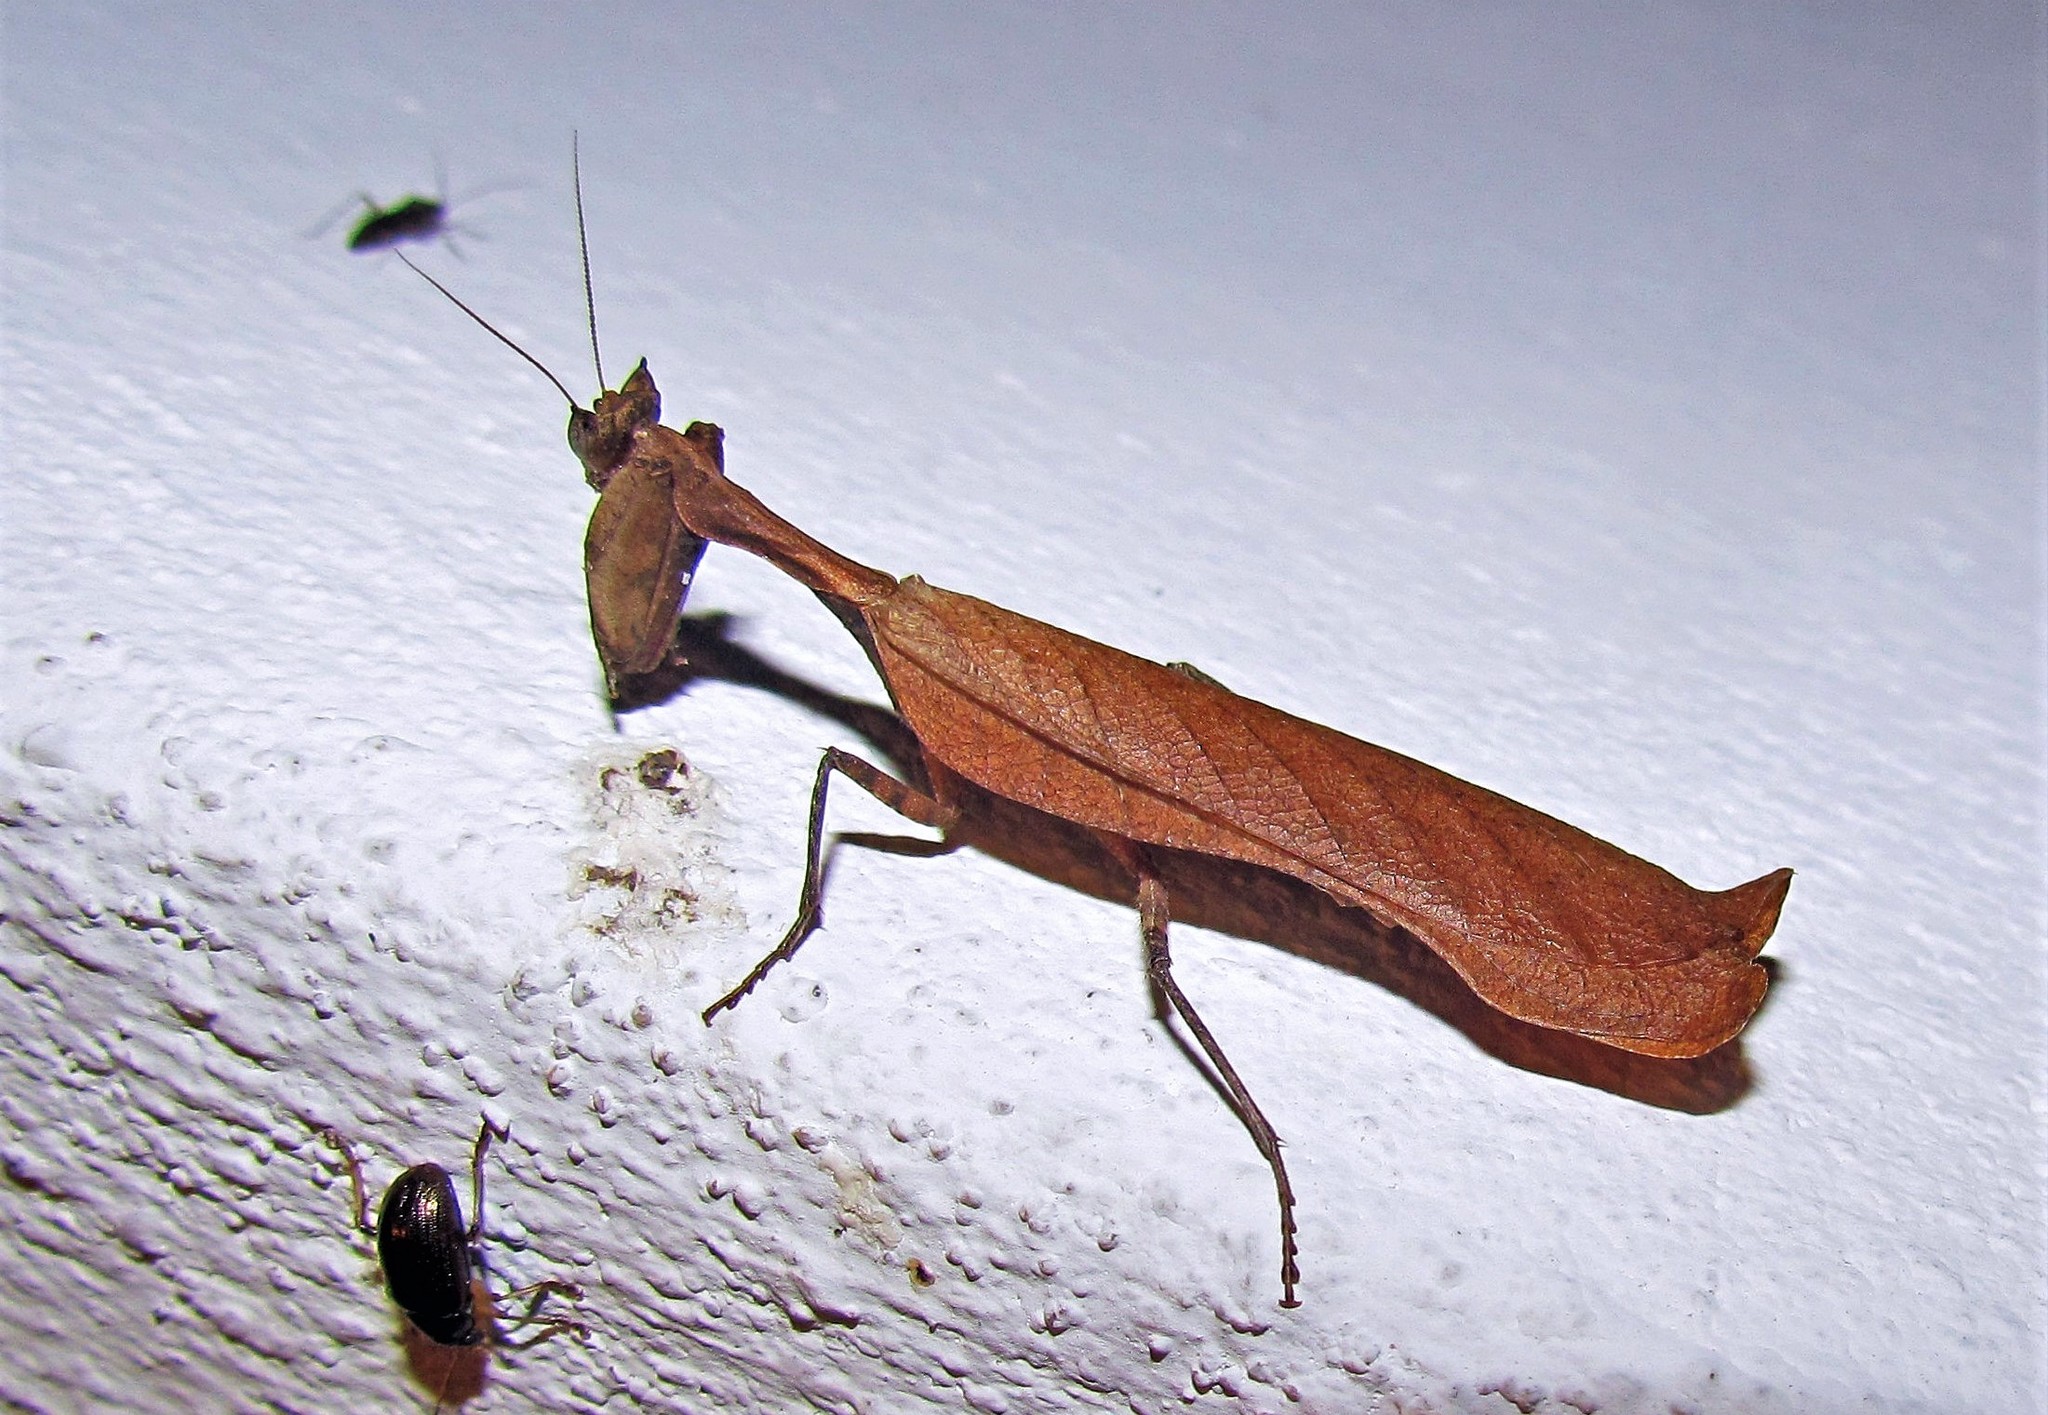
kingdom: Animalia
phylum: Arthropoda
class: Insecta
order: Mantodea
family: Acanthopidae
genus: Decimiana
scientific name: Decimiana rehni
